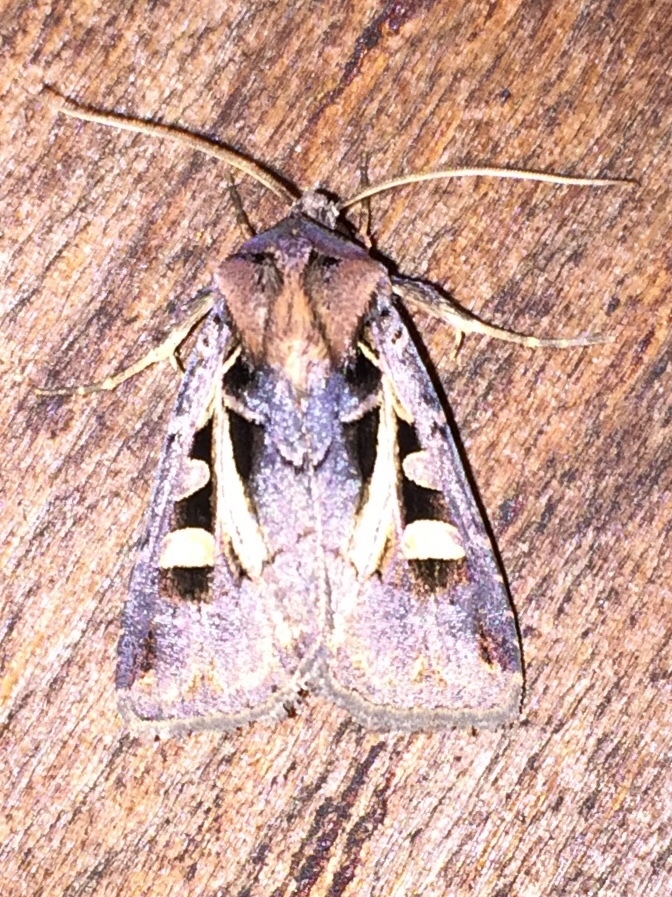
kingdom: Animalia
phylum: Arthropoda
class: Insecta
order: Lepidoptera
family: Noctuidae
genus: Feltia
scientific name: Feltia herilis
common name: Master's dart
